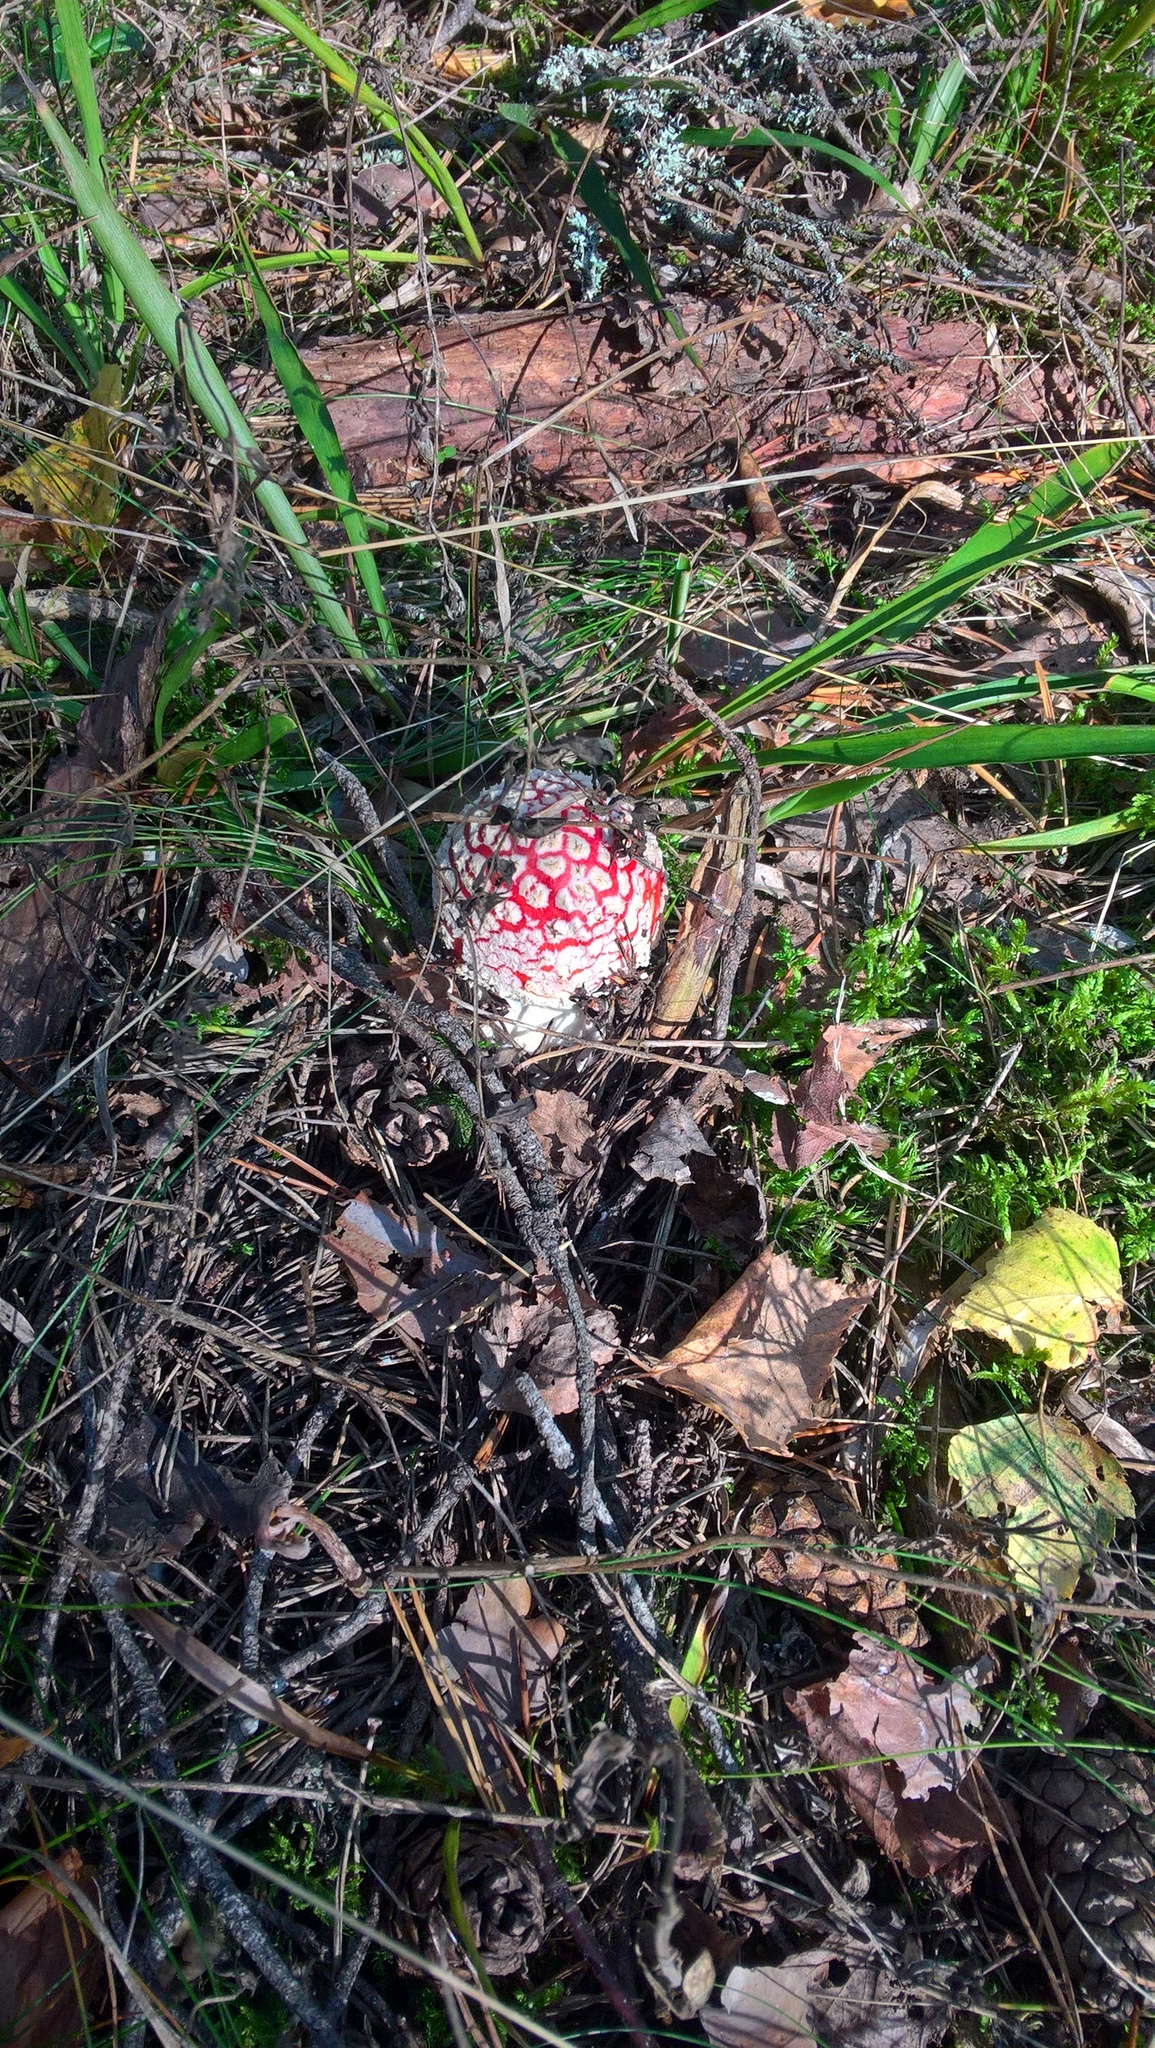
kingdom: Fungi
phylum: Basidiomycota
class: Agaricomycetes
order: Agaricales
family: Amanitaceae
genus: Amanita
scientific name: Amanita muscaria
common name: Fly agaric
